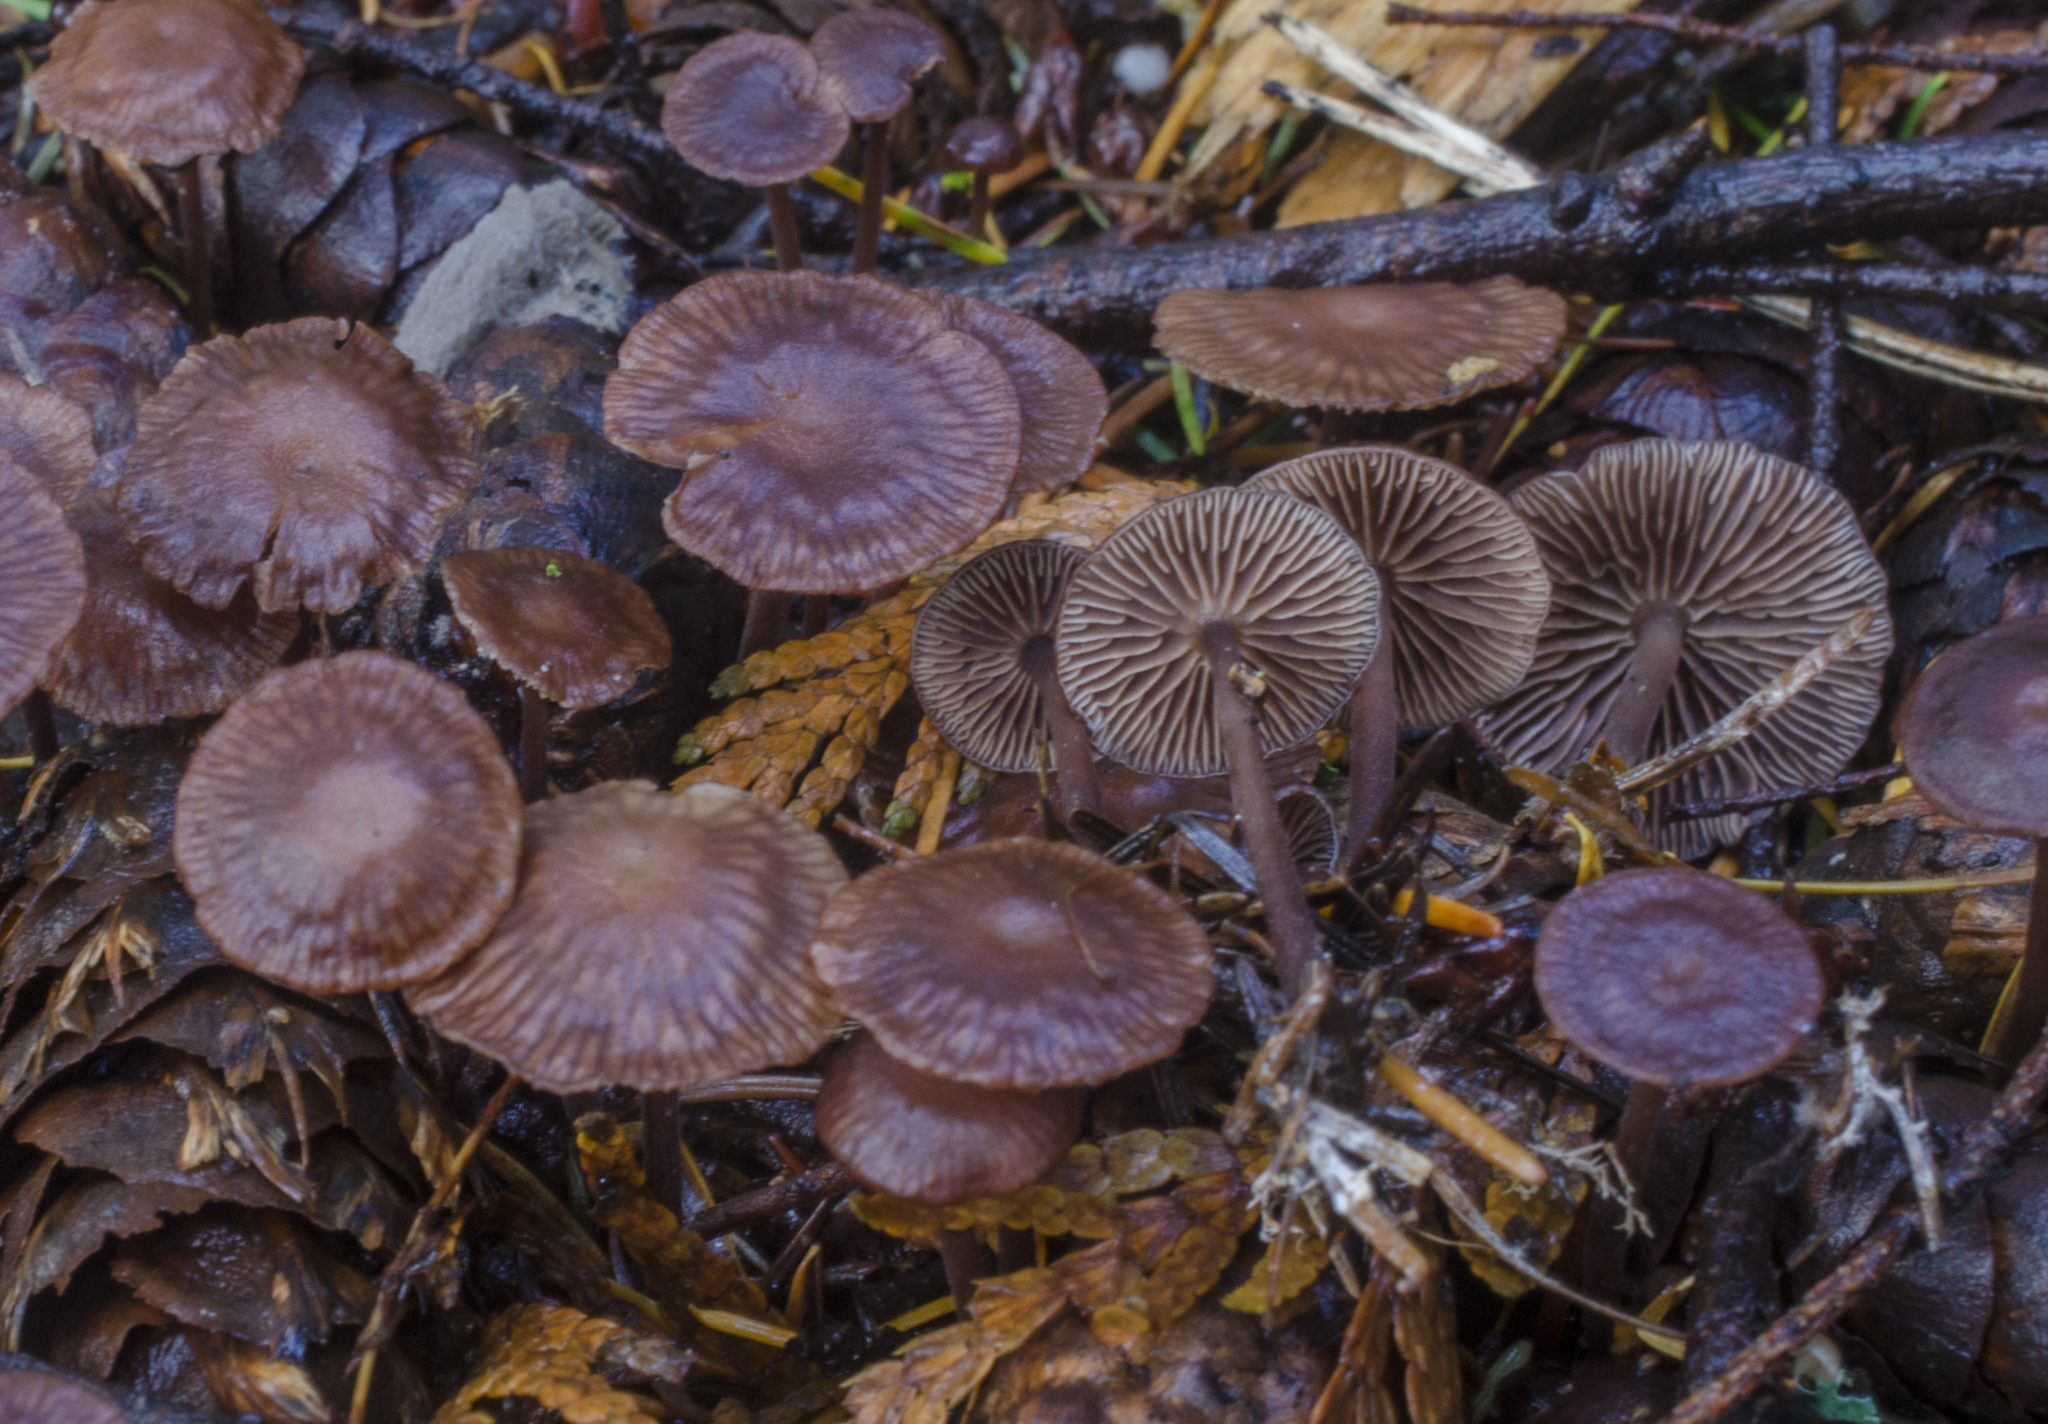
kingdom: Fungi
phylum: Basidiomycota
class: Agaricomycetes
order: Agaricales
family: Omphalotaceae
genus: Collybiopsis
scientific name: Collybiopsis villosipes
